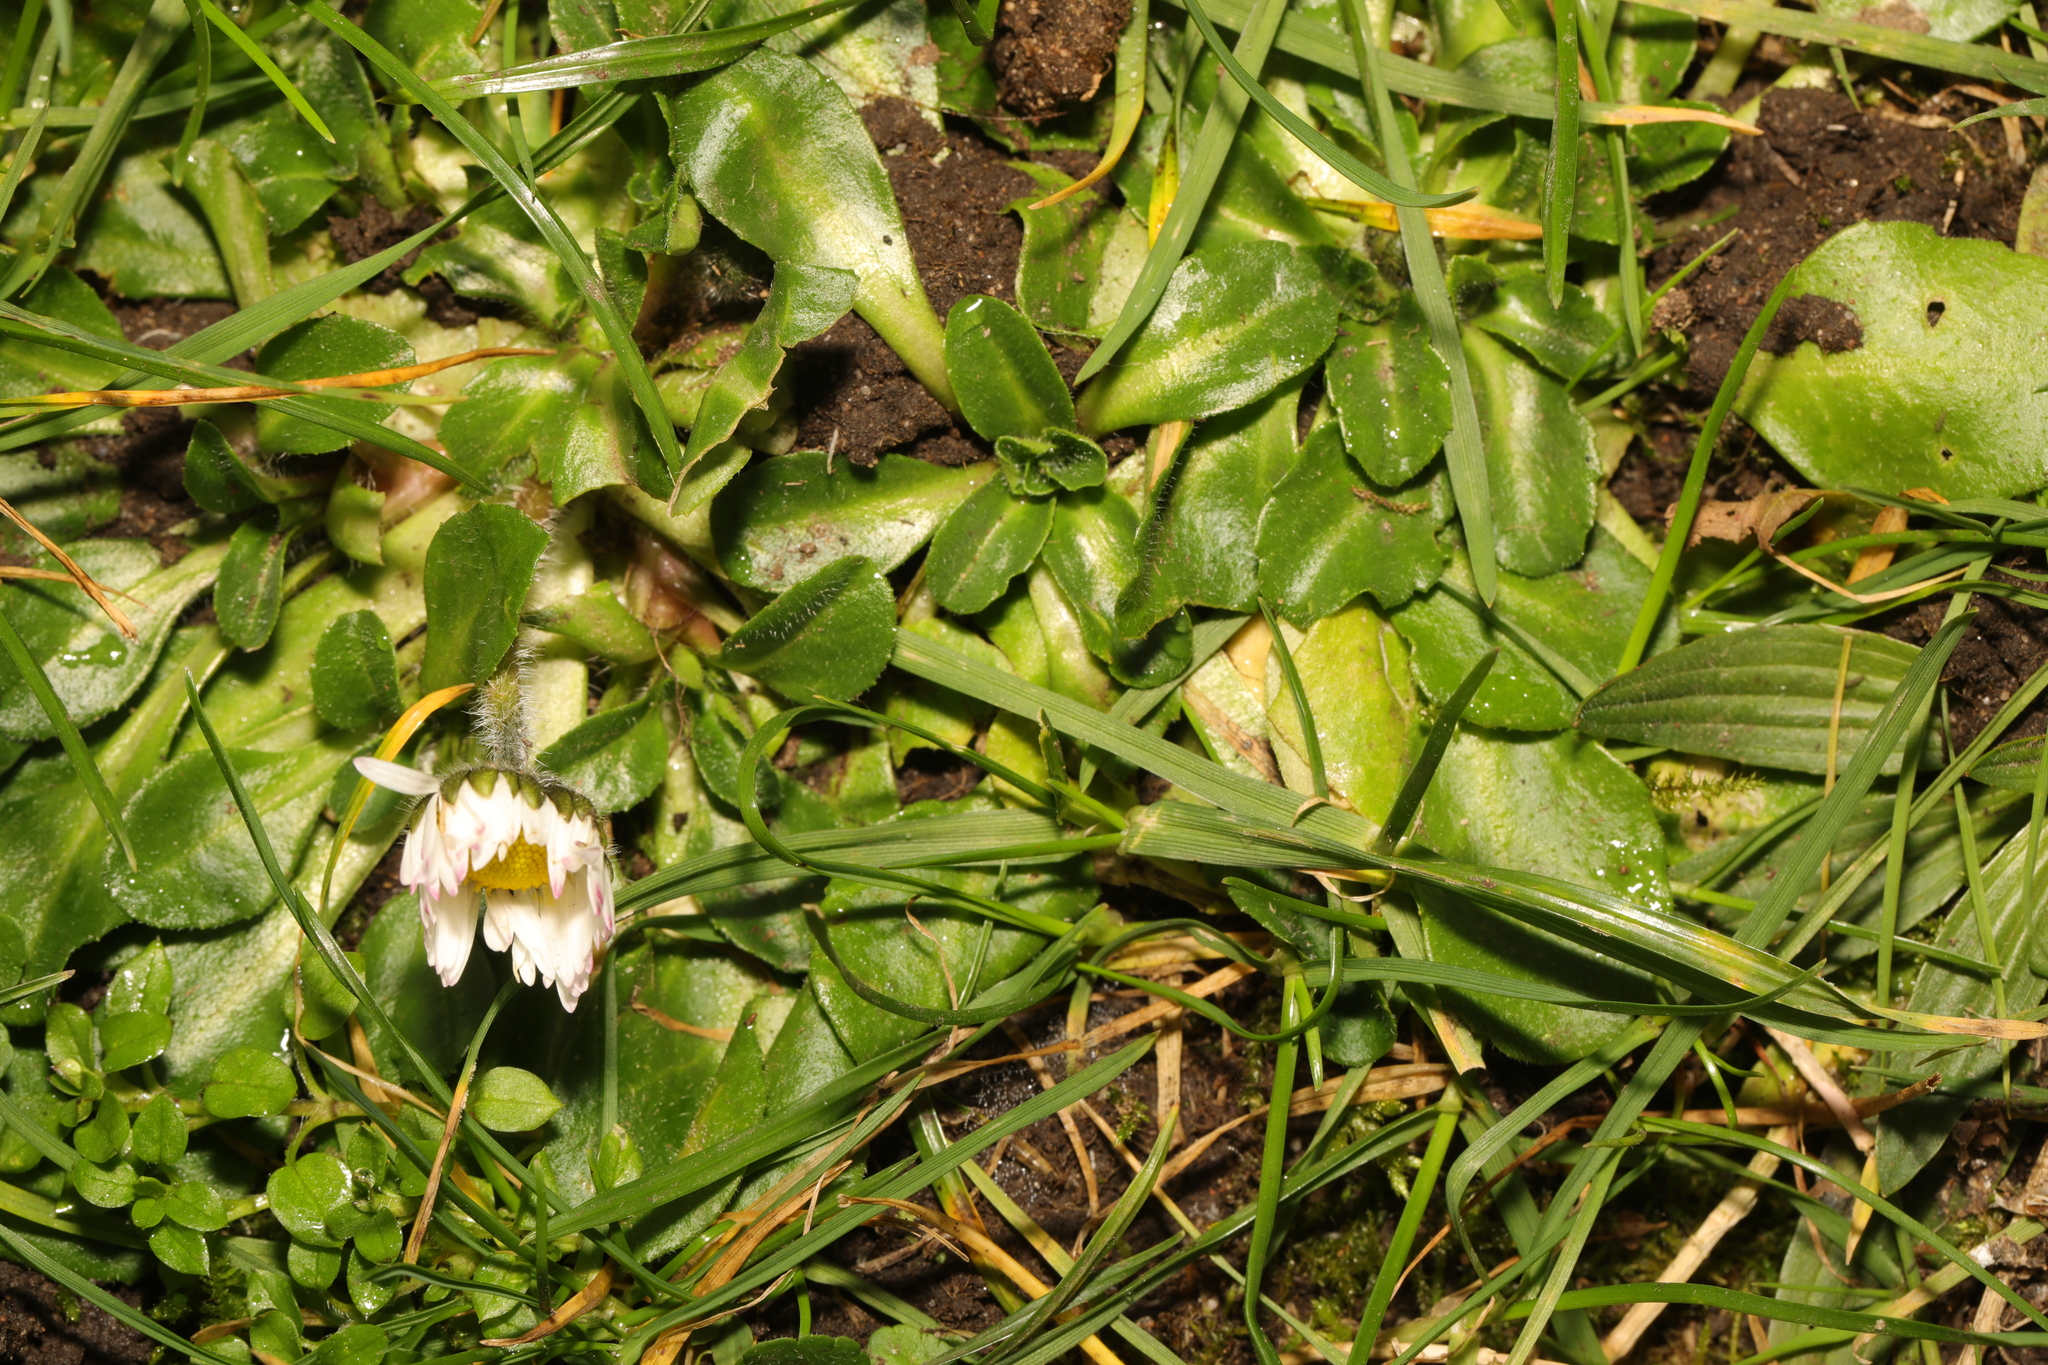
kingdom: Plantae
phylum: Tracheophyta
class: Magnoliopsida
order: Asterales
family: Asteraceae
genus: Bellis
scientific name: Bellis perennis
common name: Lawndaisy
